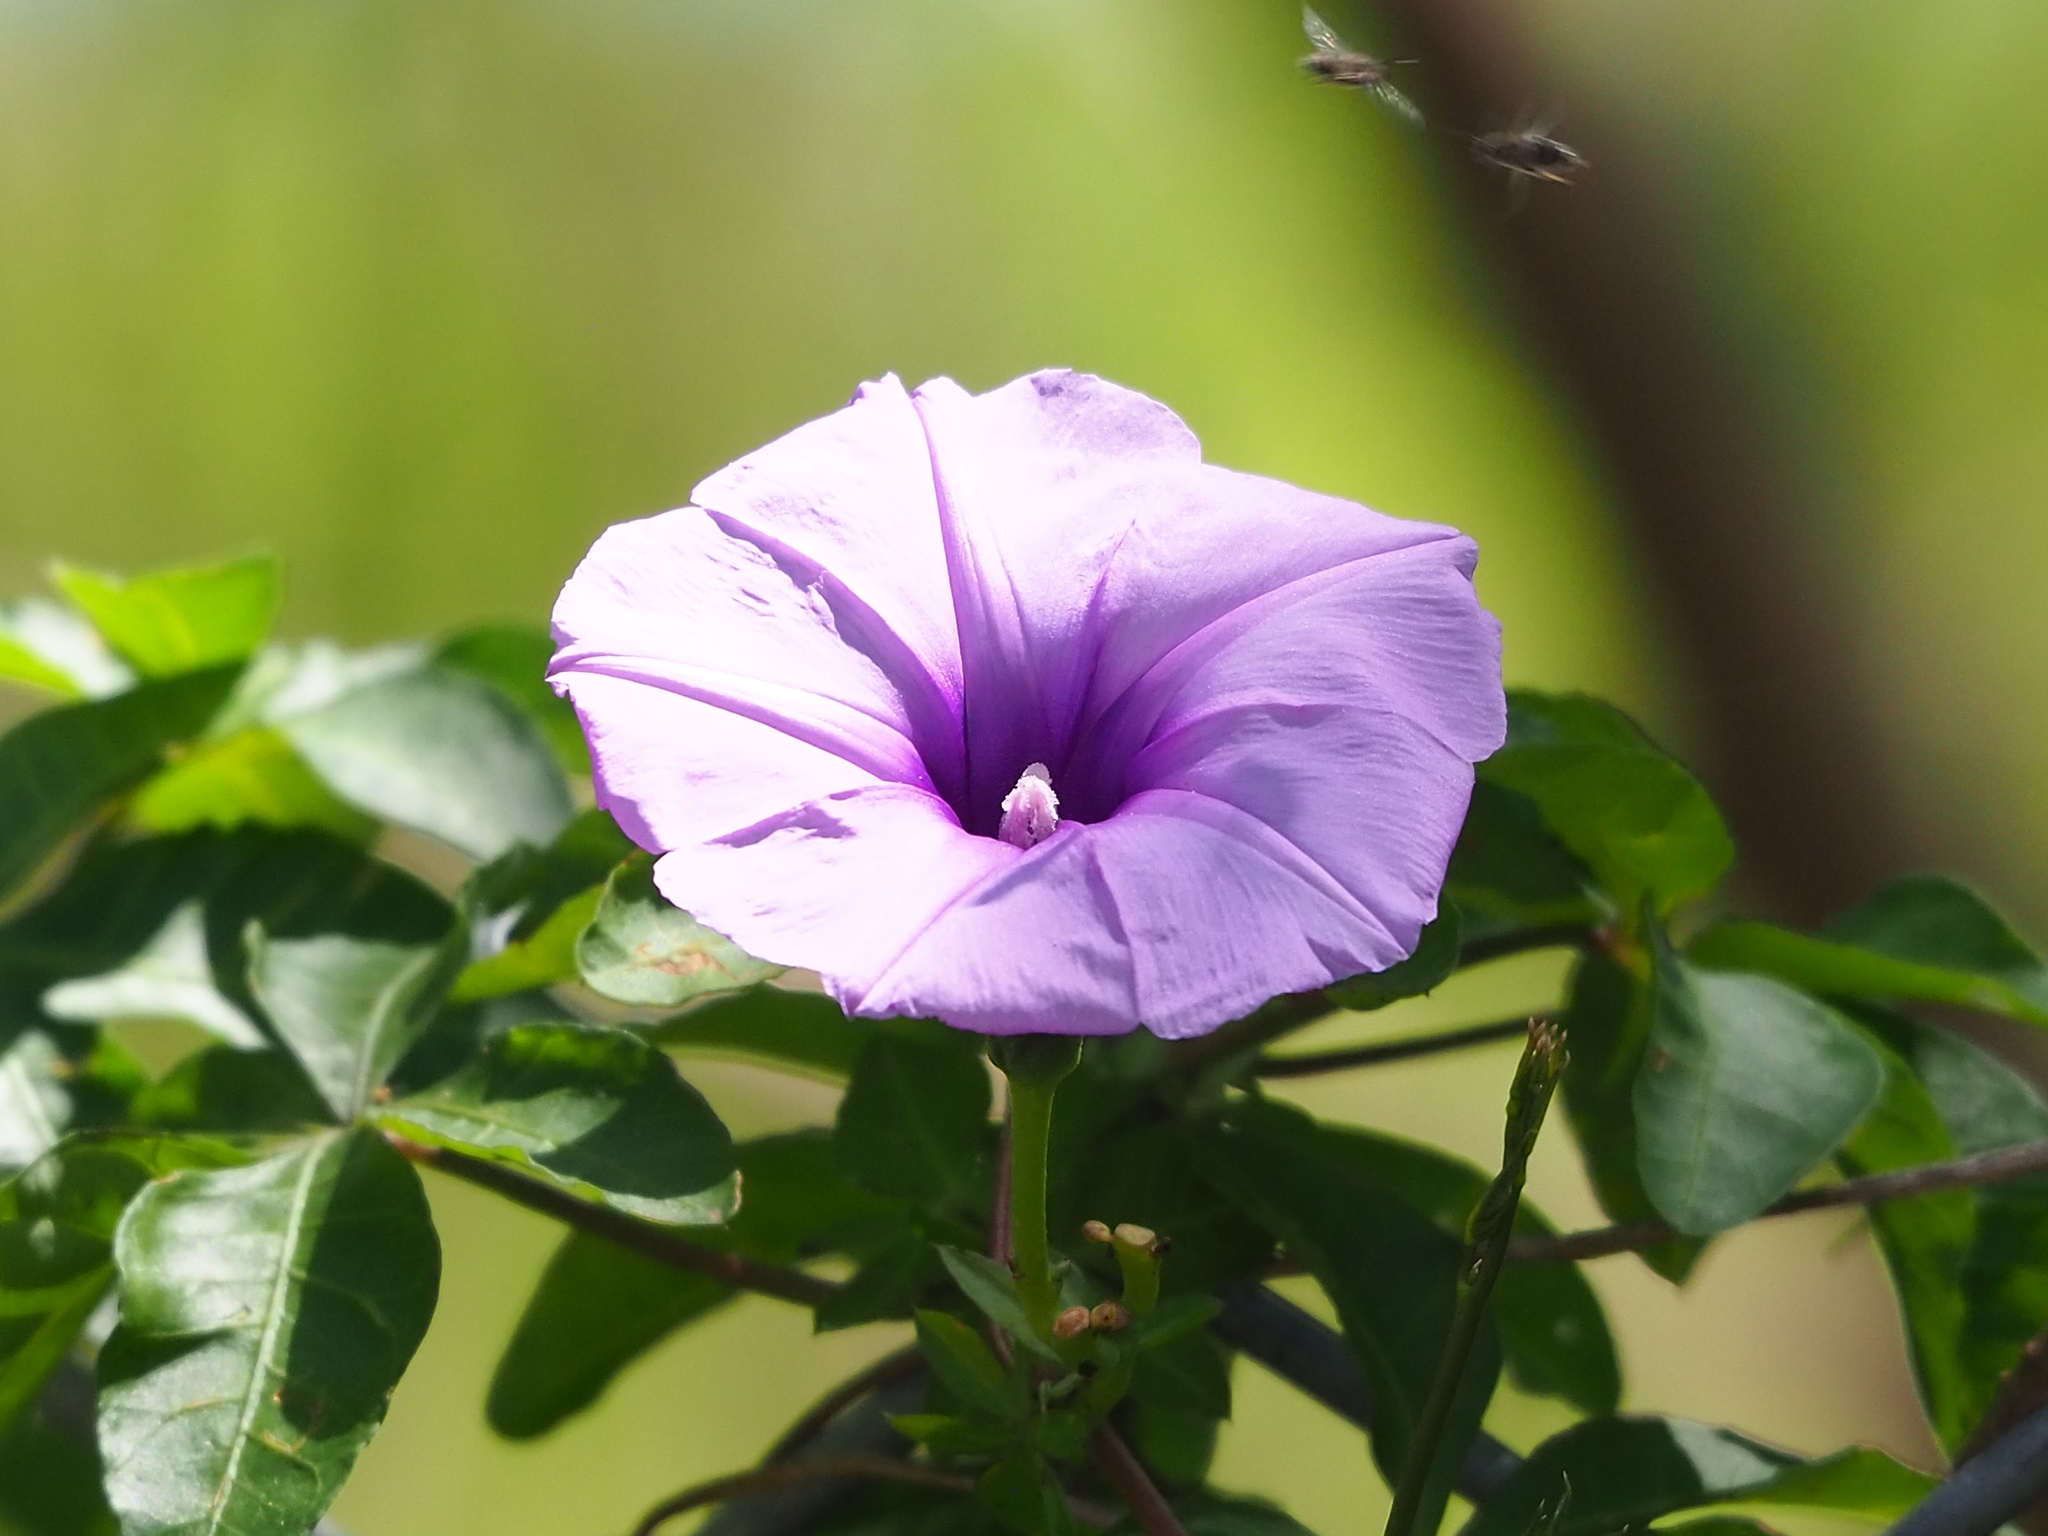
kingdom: Plantae
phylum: Tracheophyta
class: Magnoliopsida
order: Solanales
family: Convolvulaceae
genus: Ipomoea
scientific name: Ipomoea cairica
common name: Mile a minute vine
